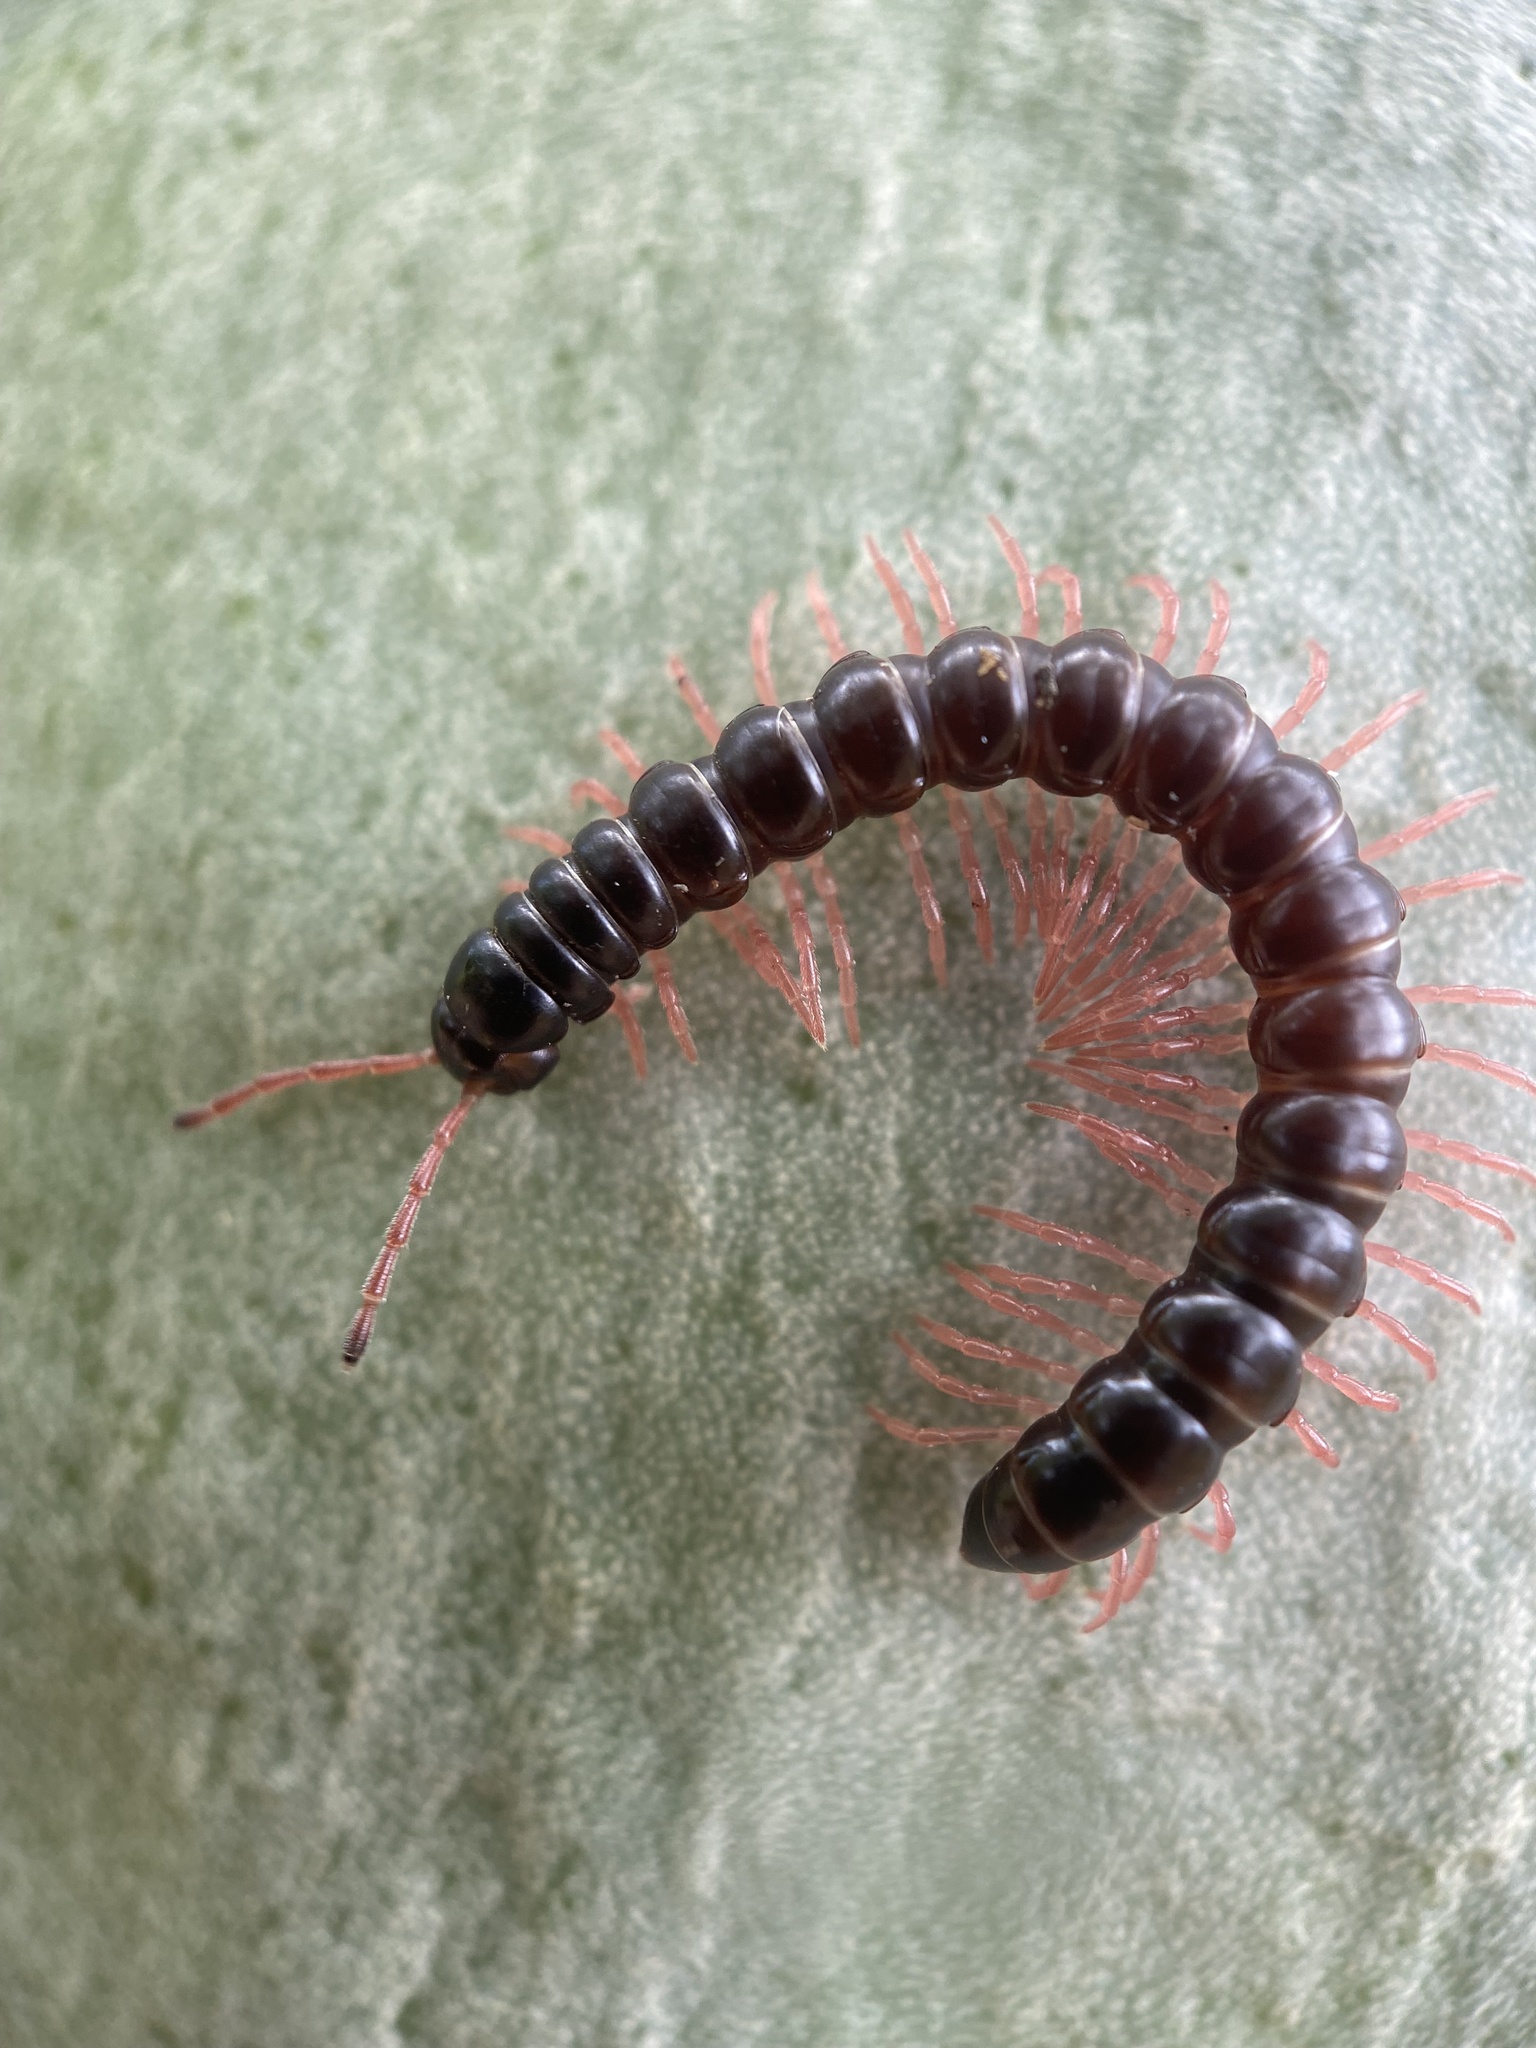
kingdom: Animalia
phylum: Arthropoda
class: Diplopoda
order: Polydesmida
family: Paradoxosomatidae
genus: Heterocladosoma
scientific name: Heterocladosoma
